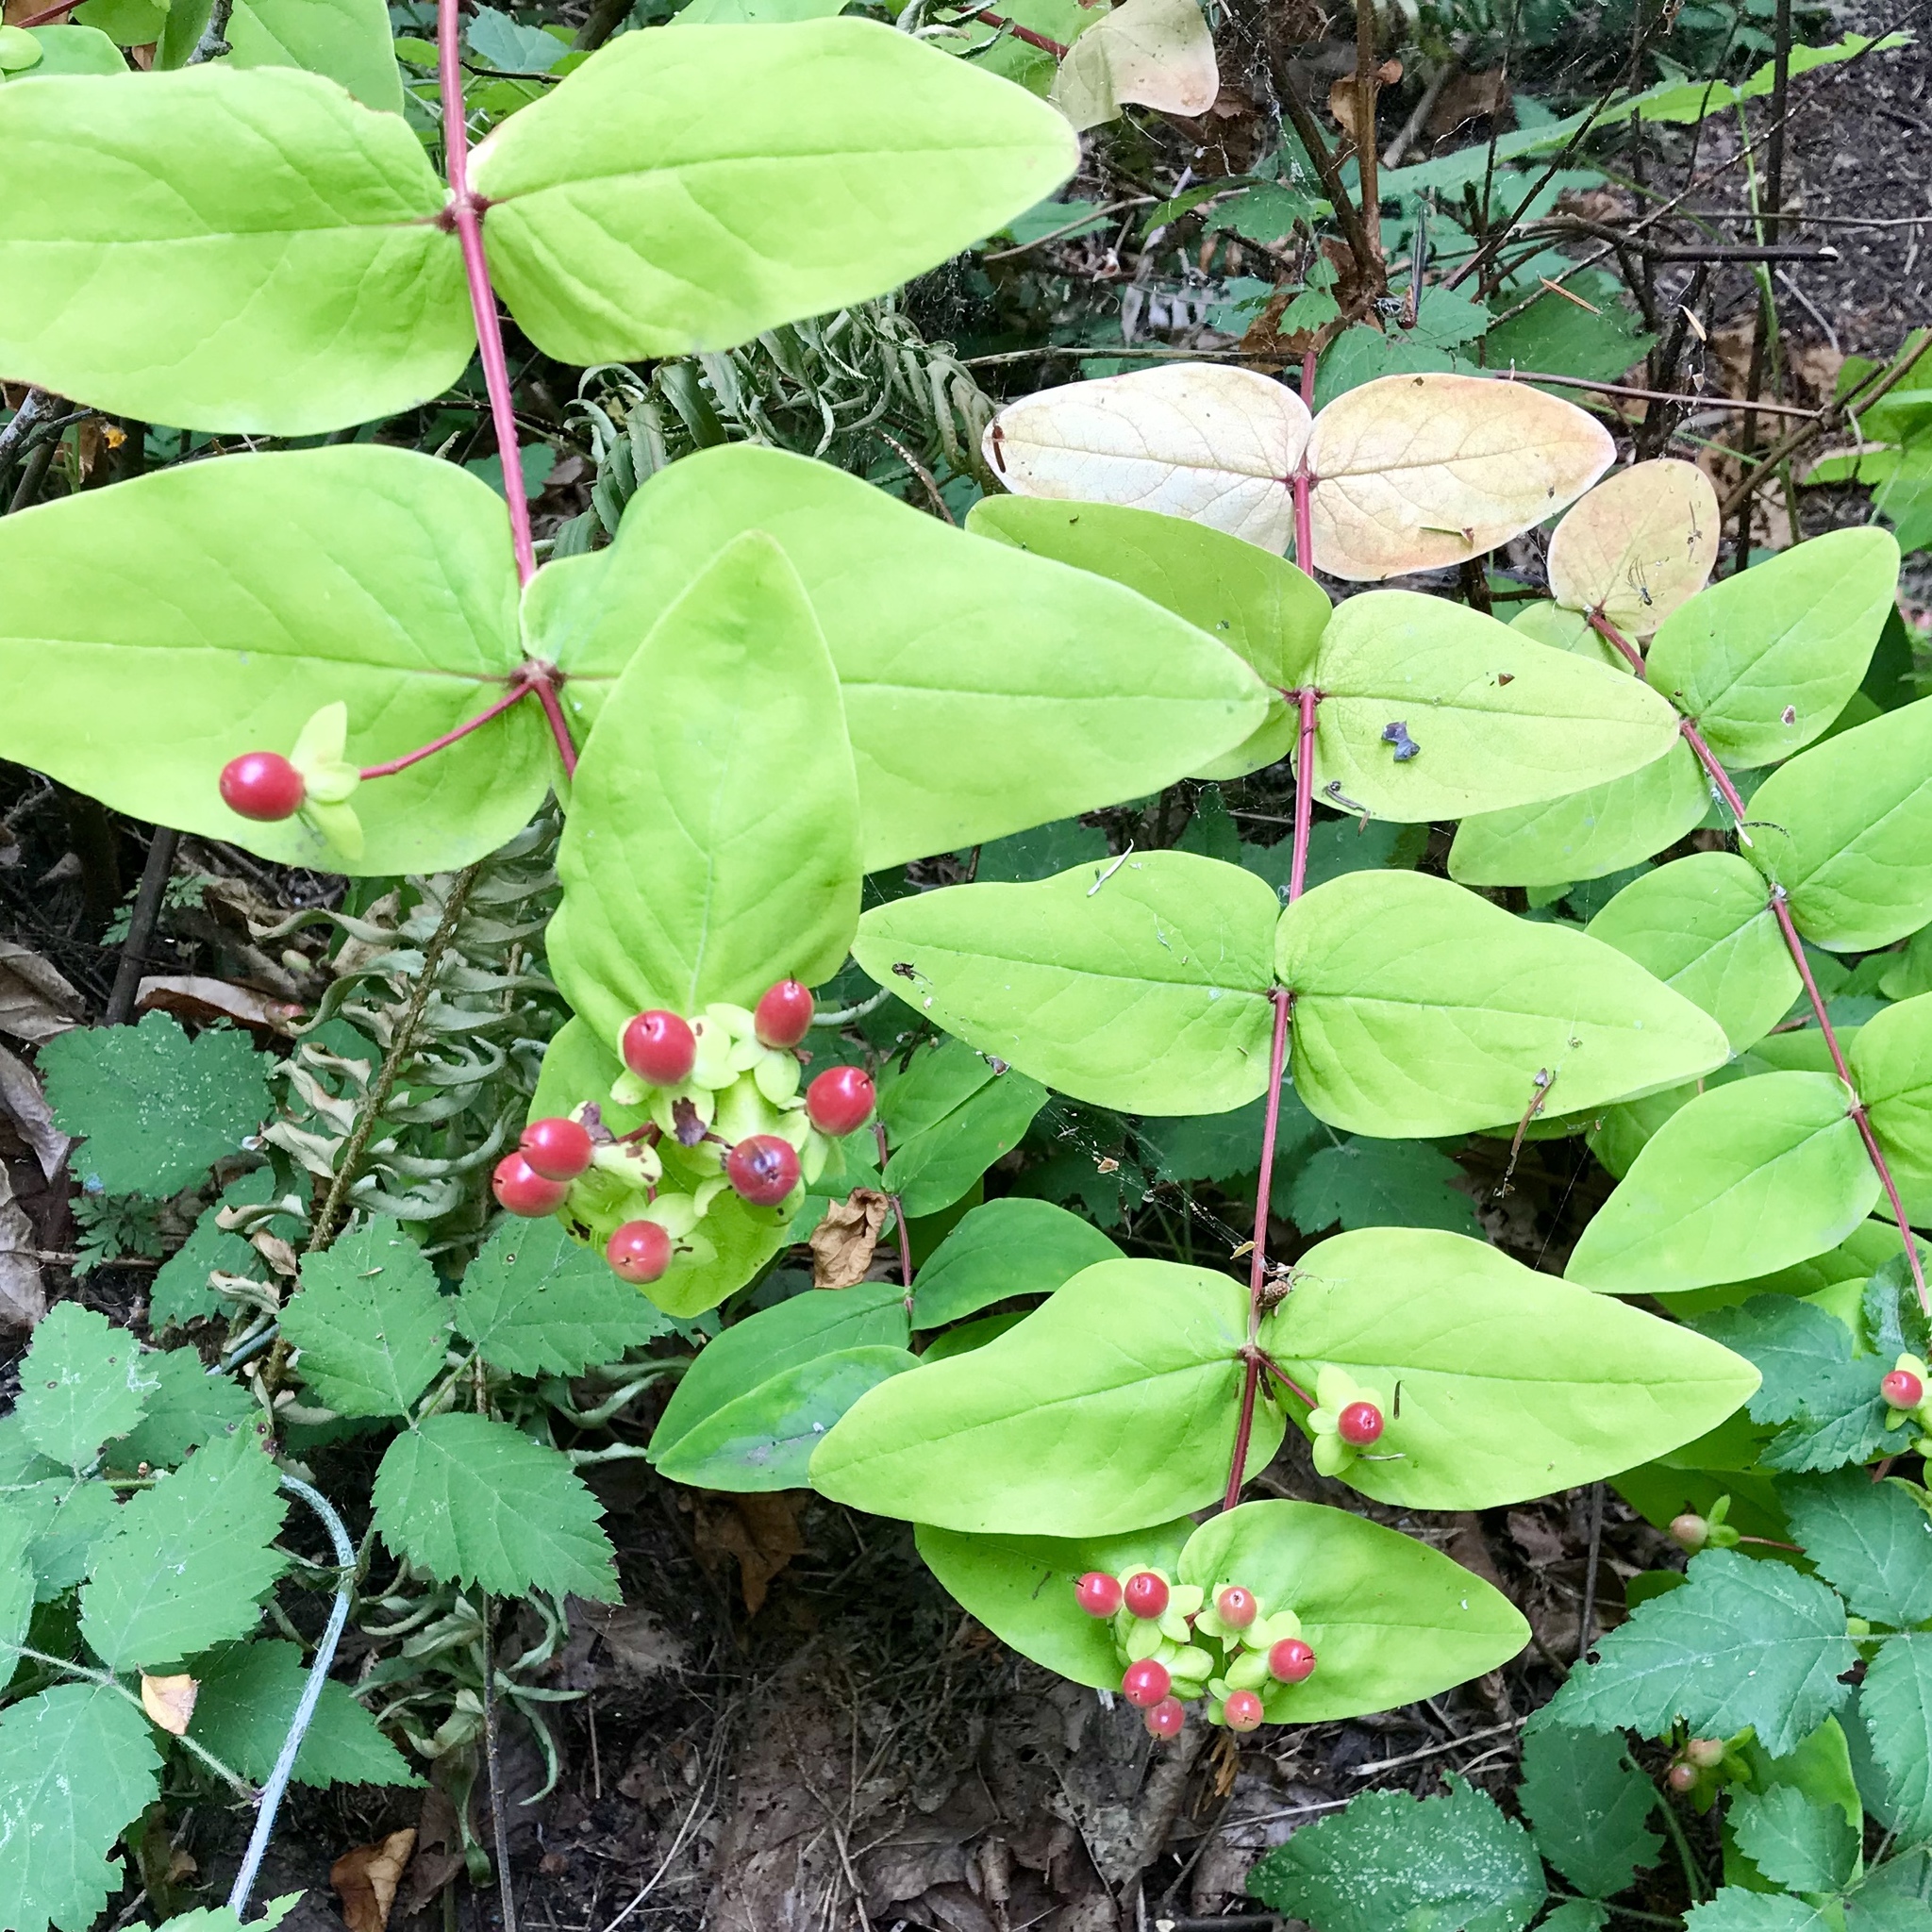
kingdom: Plantae
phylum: Tracheophyta
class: Magnoliopsida
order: Malpighiales
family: Hypericaceae
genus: Hypericum
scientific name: Hypericum androsaemum
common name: Sweet-amber
